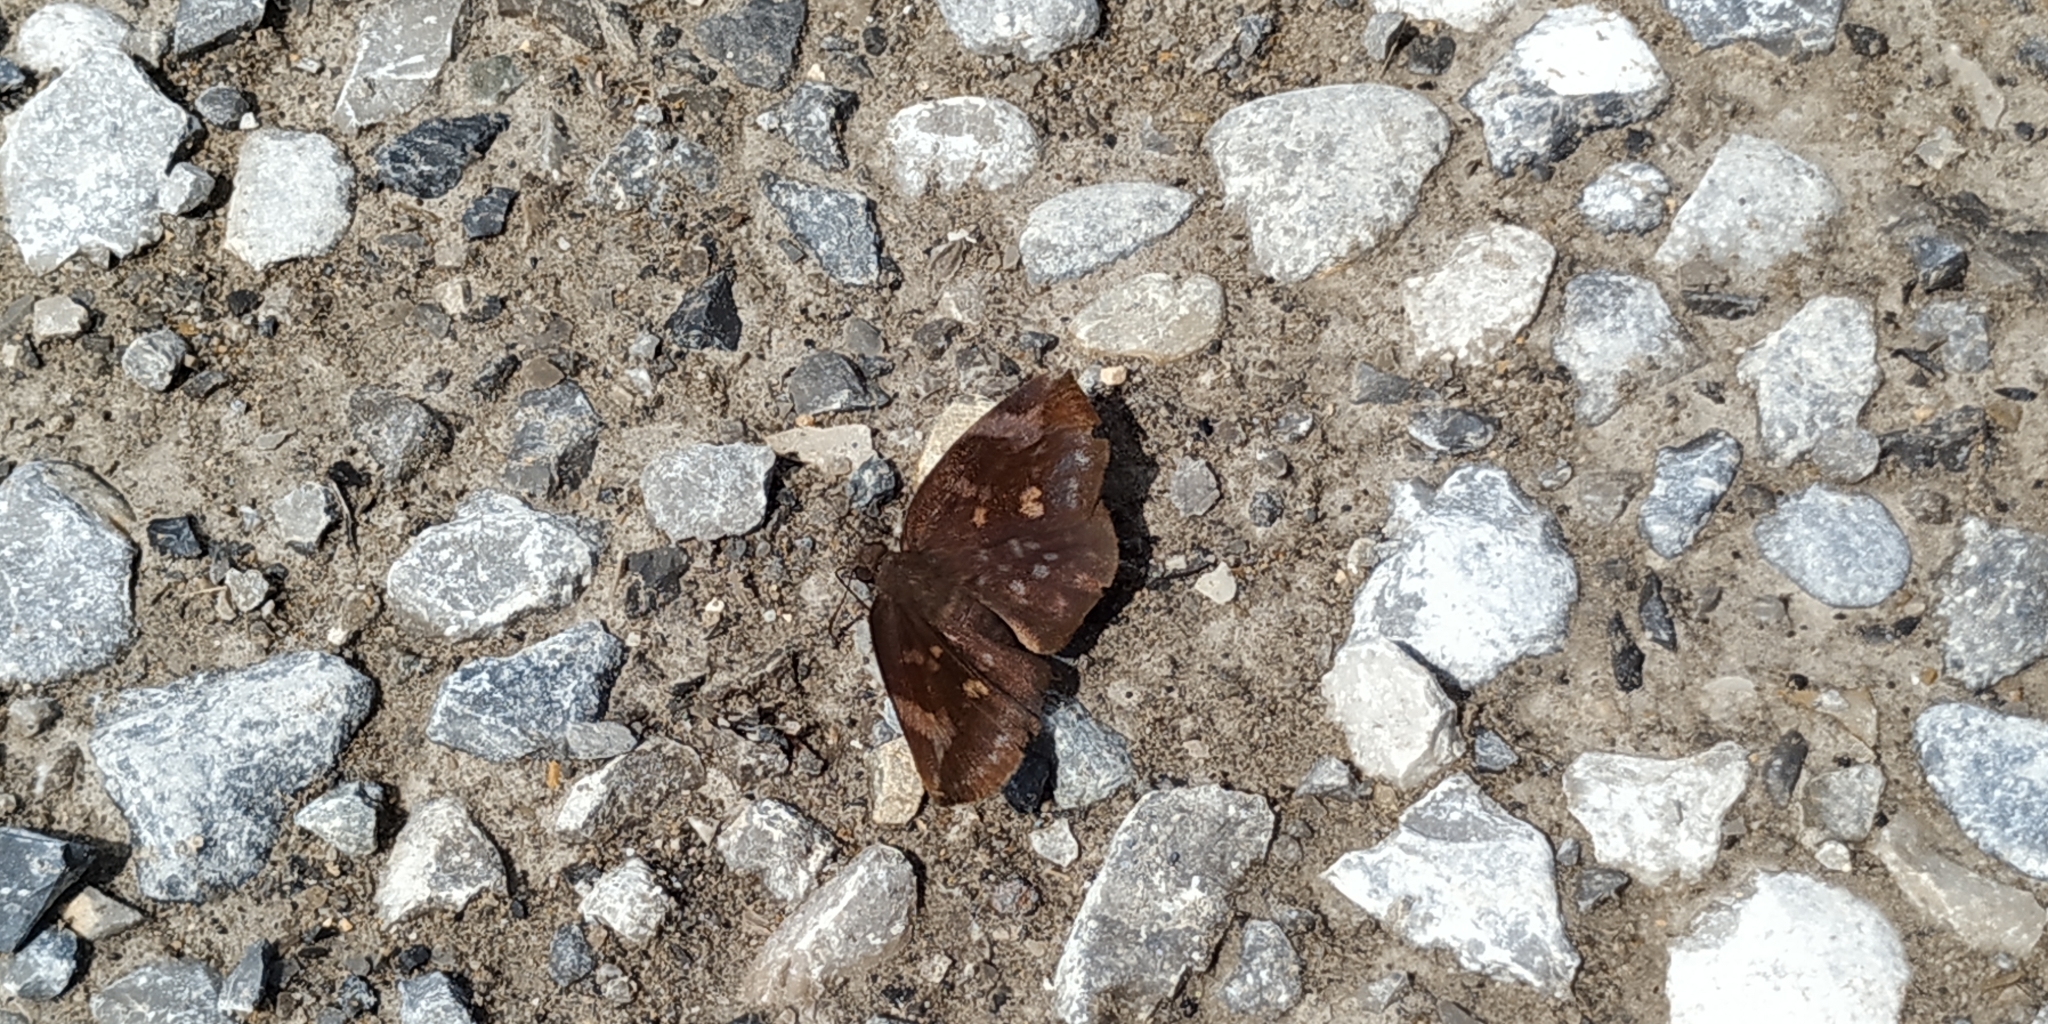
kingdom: Animalia
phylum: Arthropoda
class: Insecta
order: Lepidoptera
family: Hesperiidae
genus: Achlyodes
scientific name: Achlyodes thraso
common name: Sickle-winged skipper
